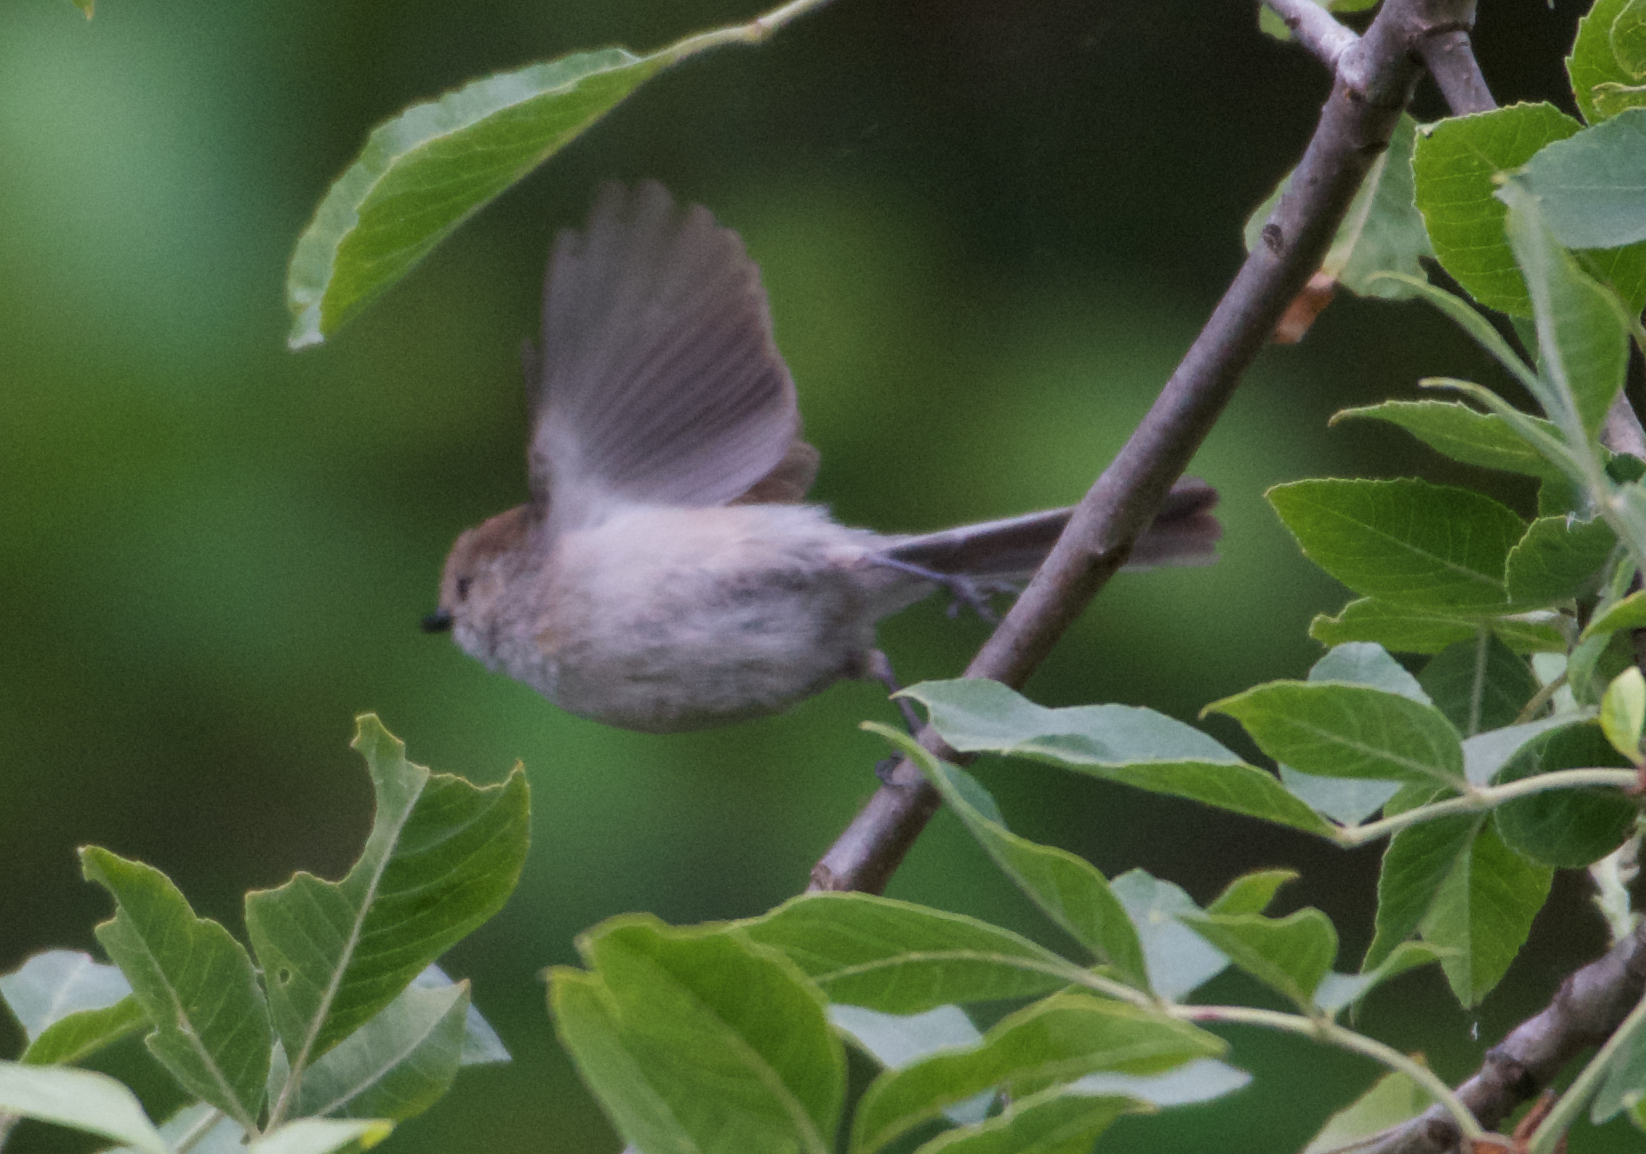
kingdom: Animalia
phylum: Chordata
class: Aves
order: Passeriformes
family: Aegithalidae
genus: Psaltriparus
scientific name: Psaltriparus minimus
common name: American bushtit
